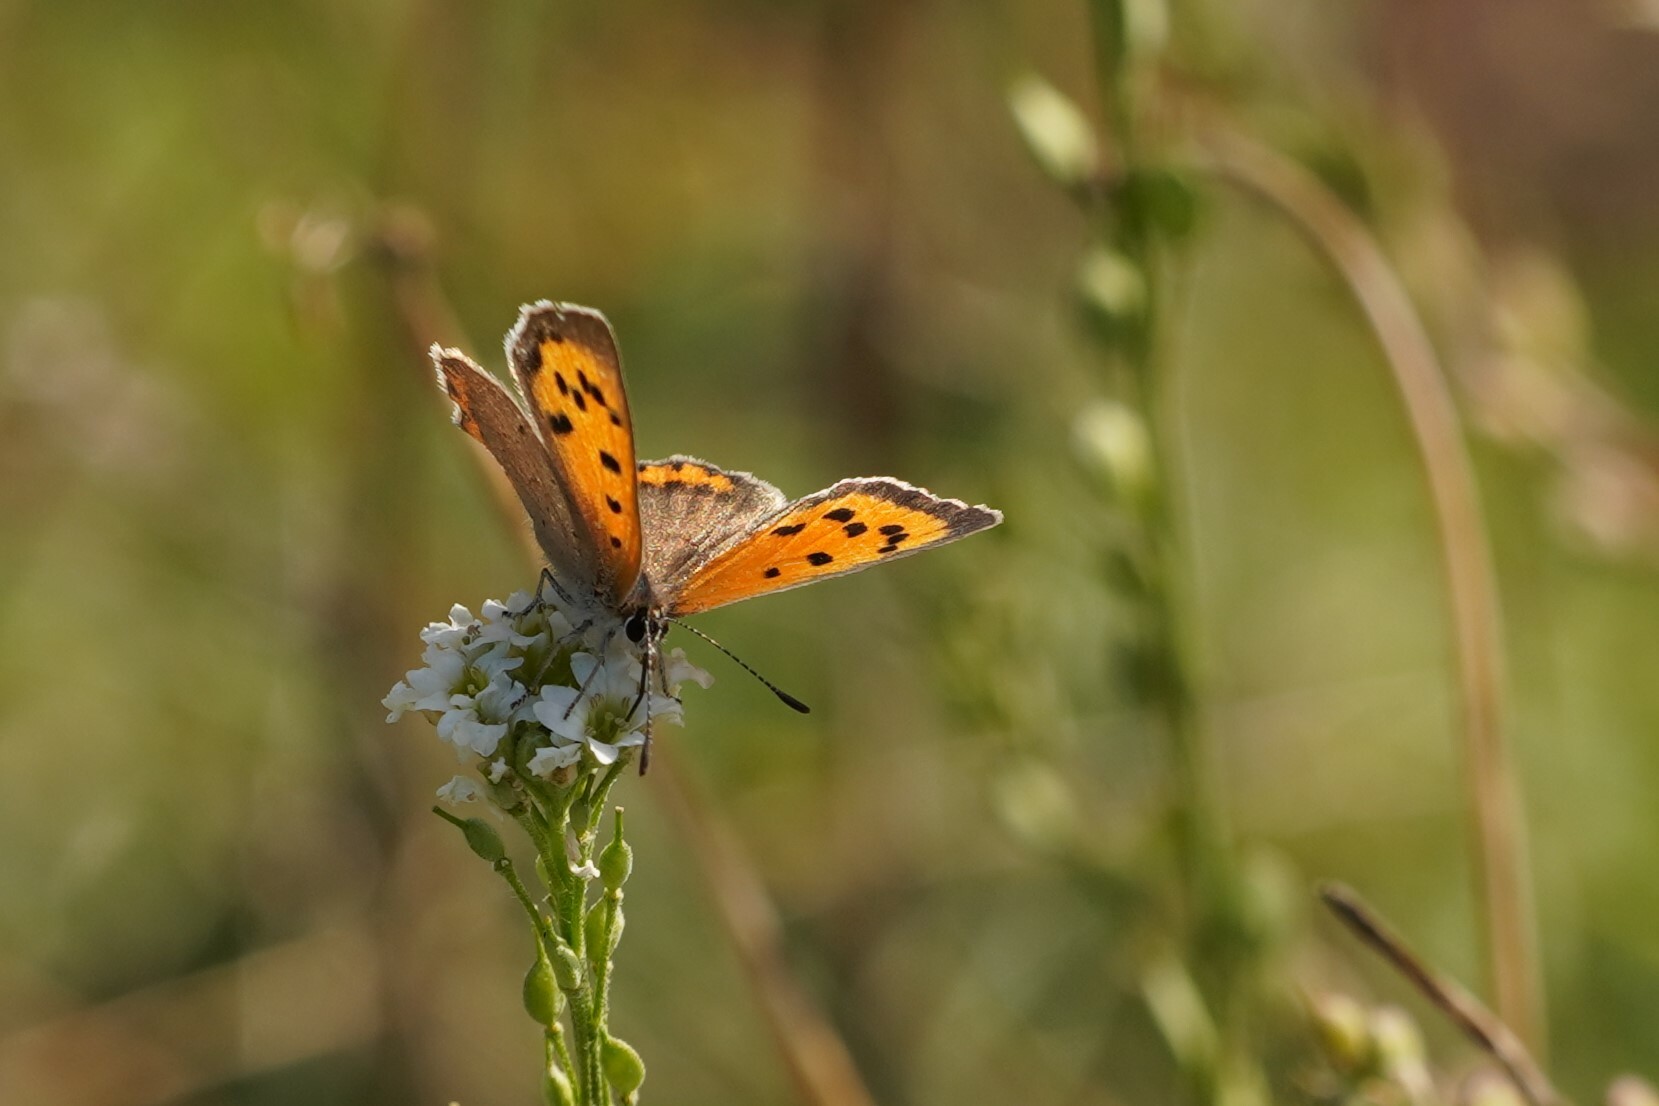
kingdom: Animalia
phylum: Arthropoda
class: Insecta
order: Lepidoptera
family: Lycaenidae
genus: Lycaena
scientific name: Lycaena phlaeas
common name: Small copper
